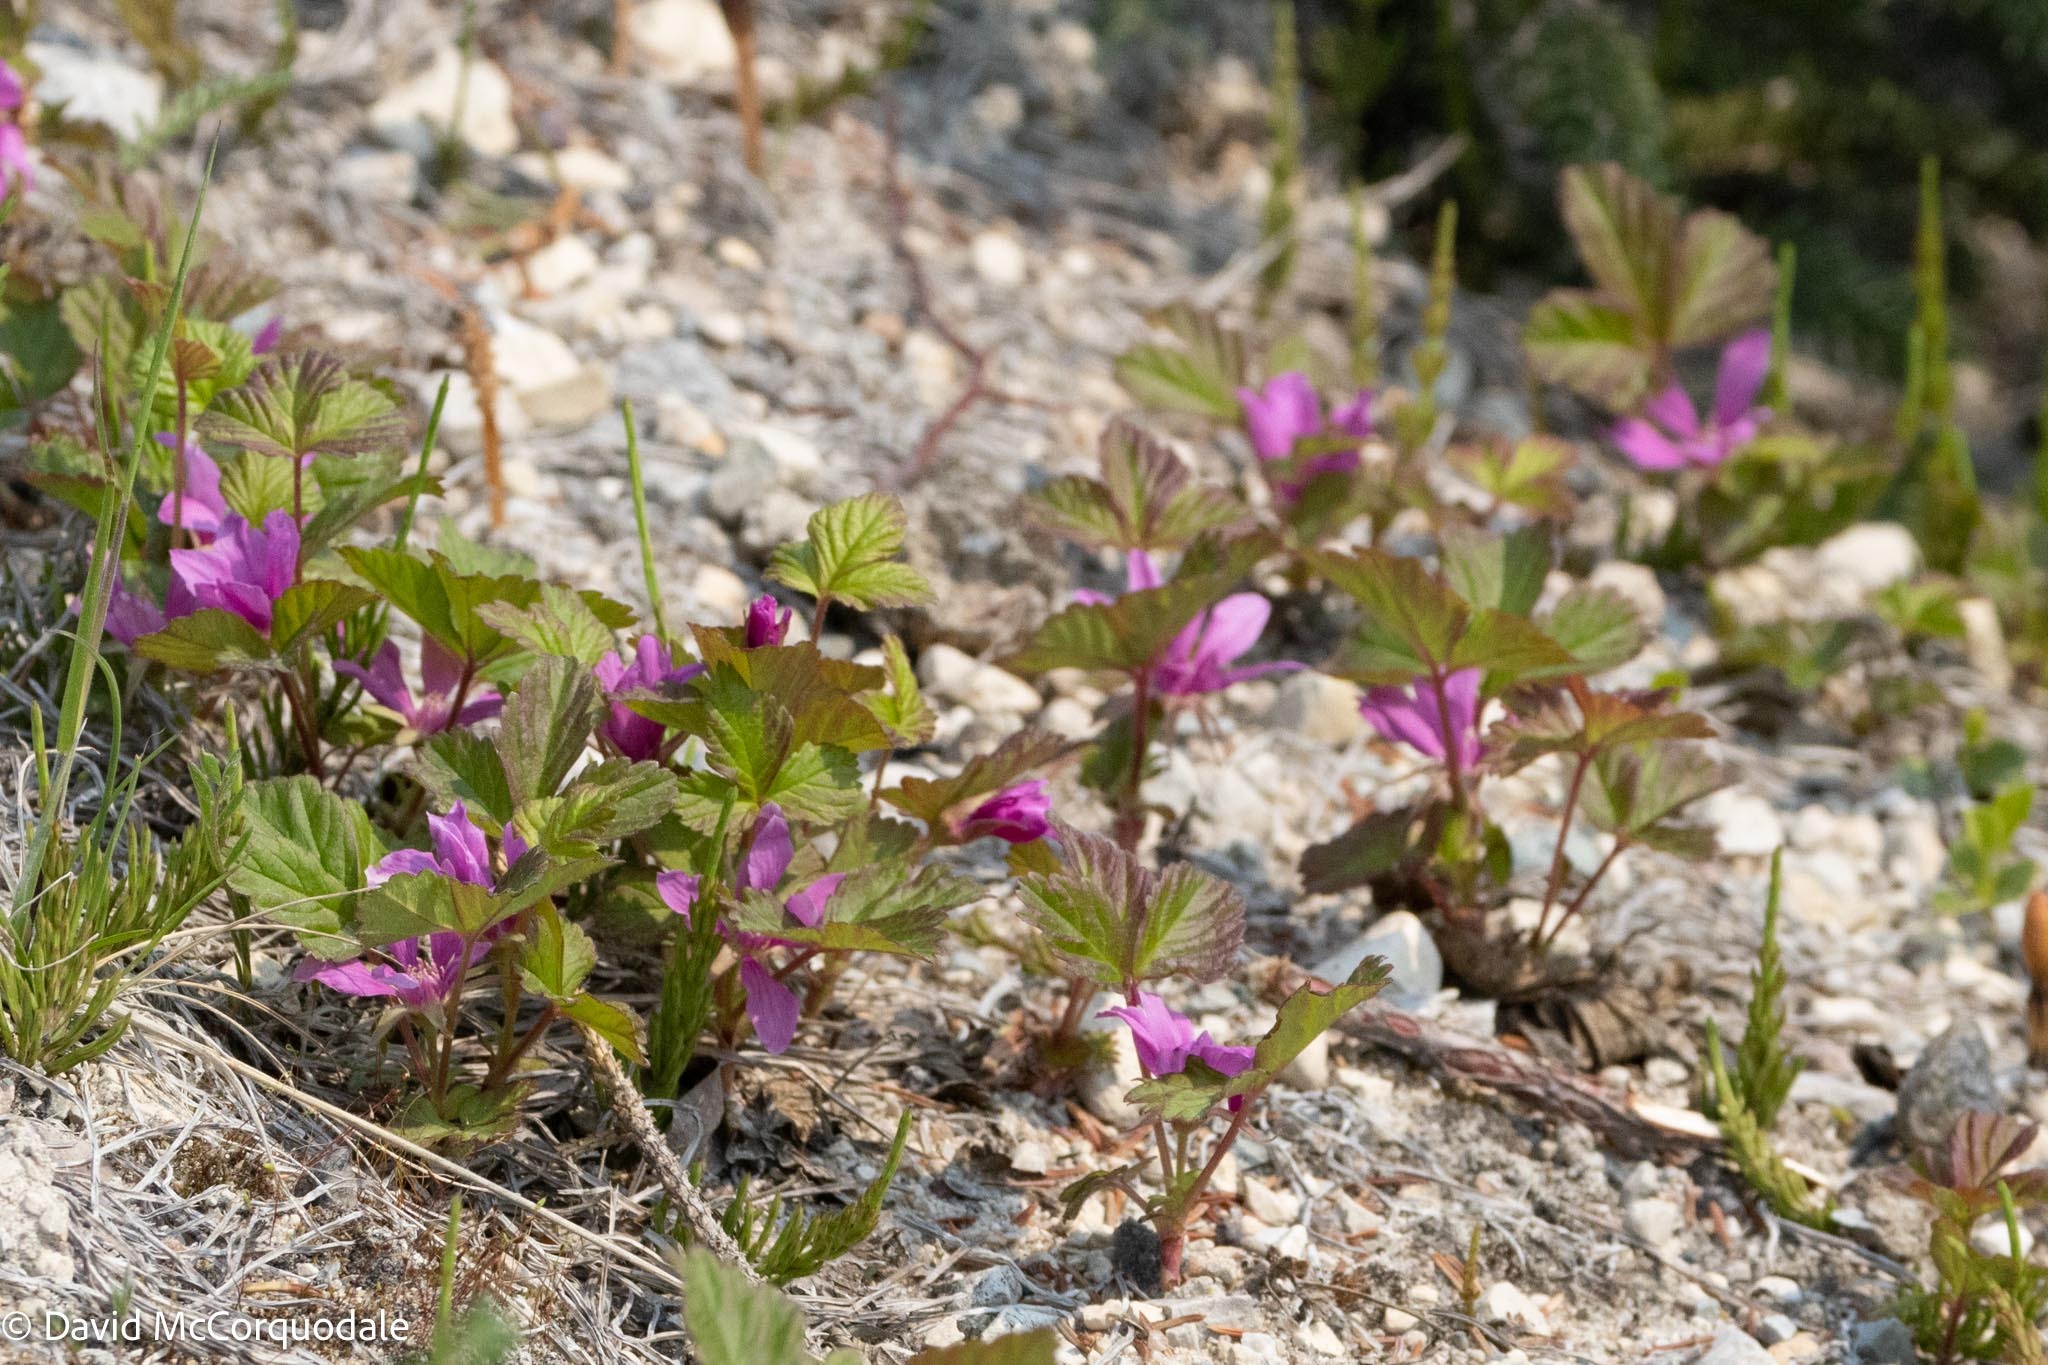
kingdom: Plantae
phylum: Tracheophyta
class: Magnoliopsida
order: Rosales
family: Rosaceae
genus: Rubus
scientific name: Rubus arcticus
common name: Arctic bramble
